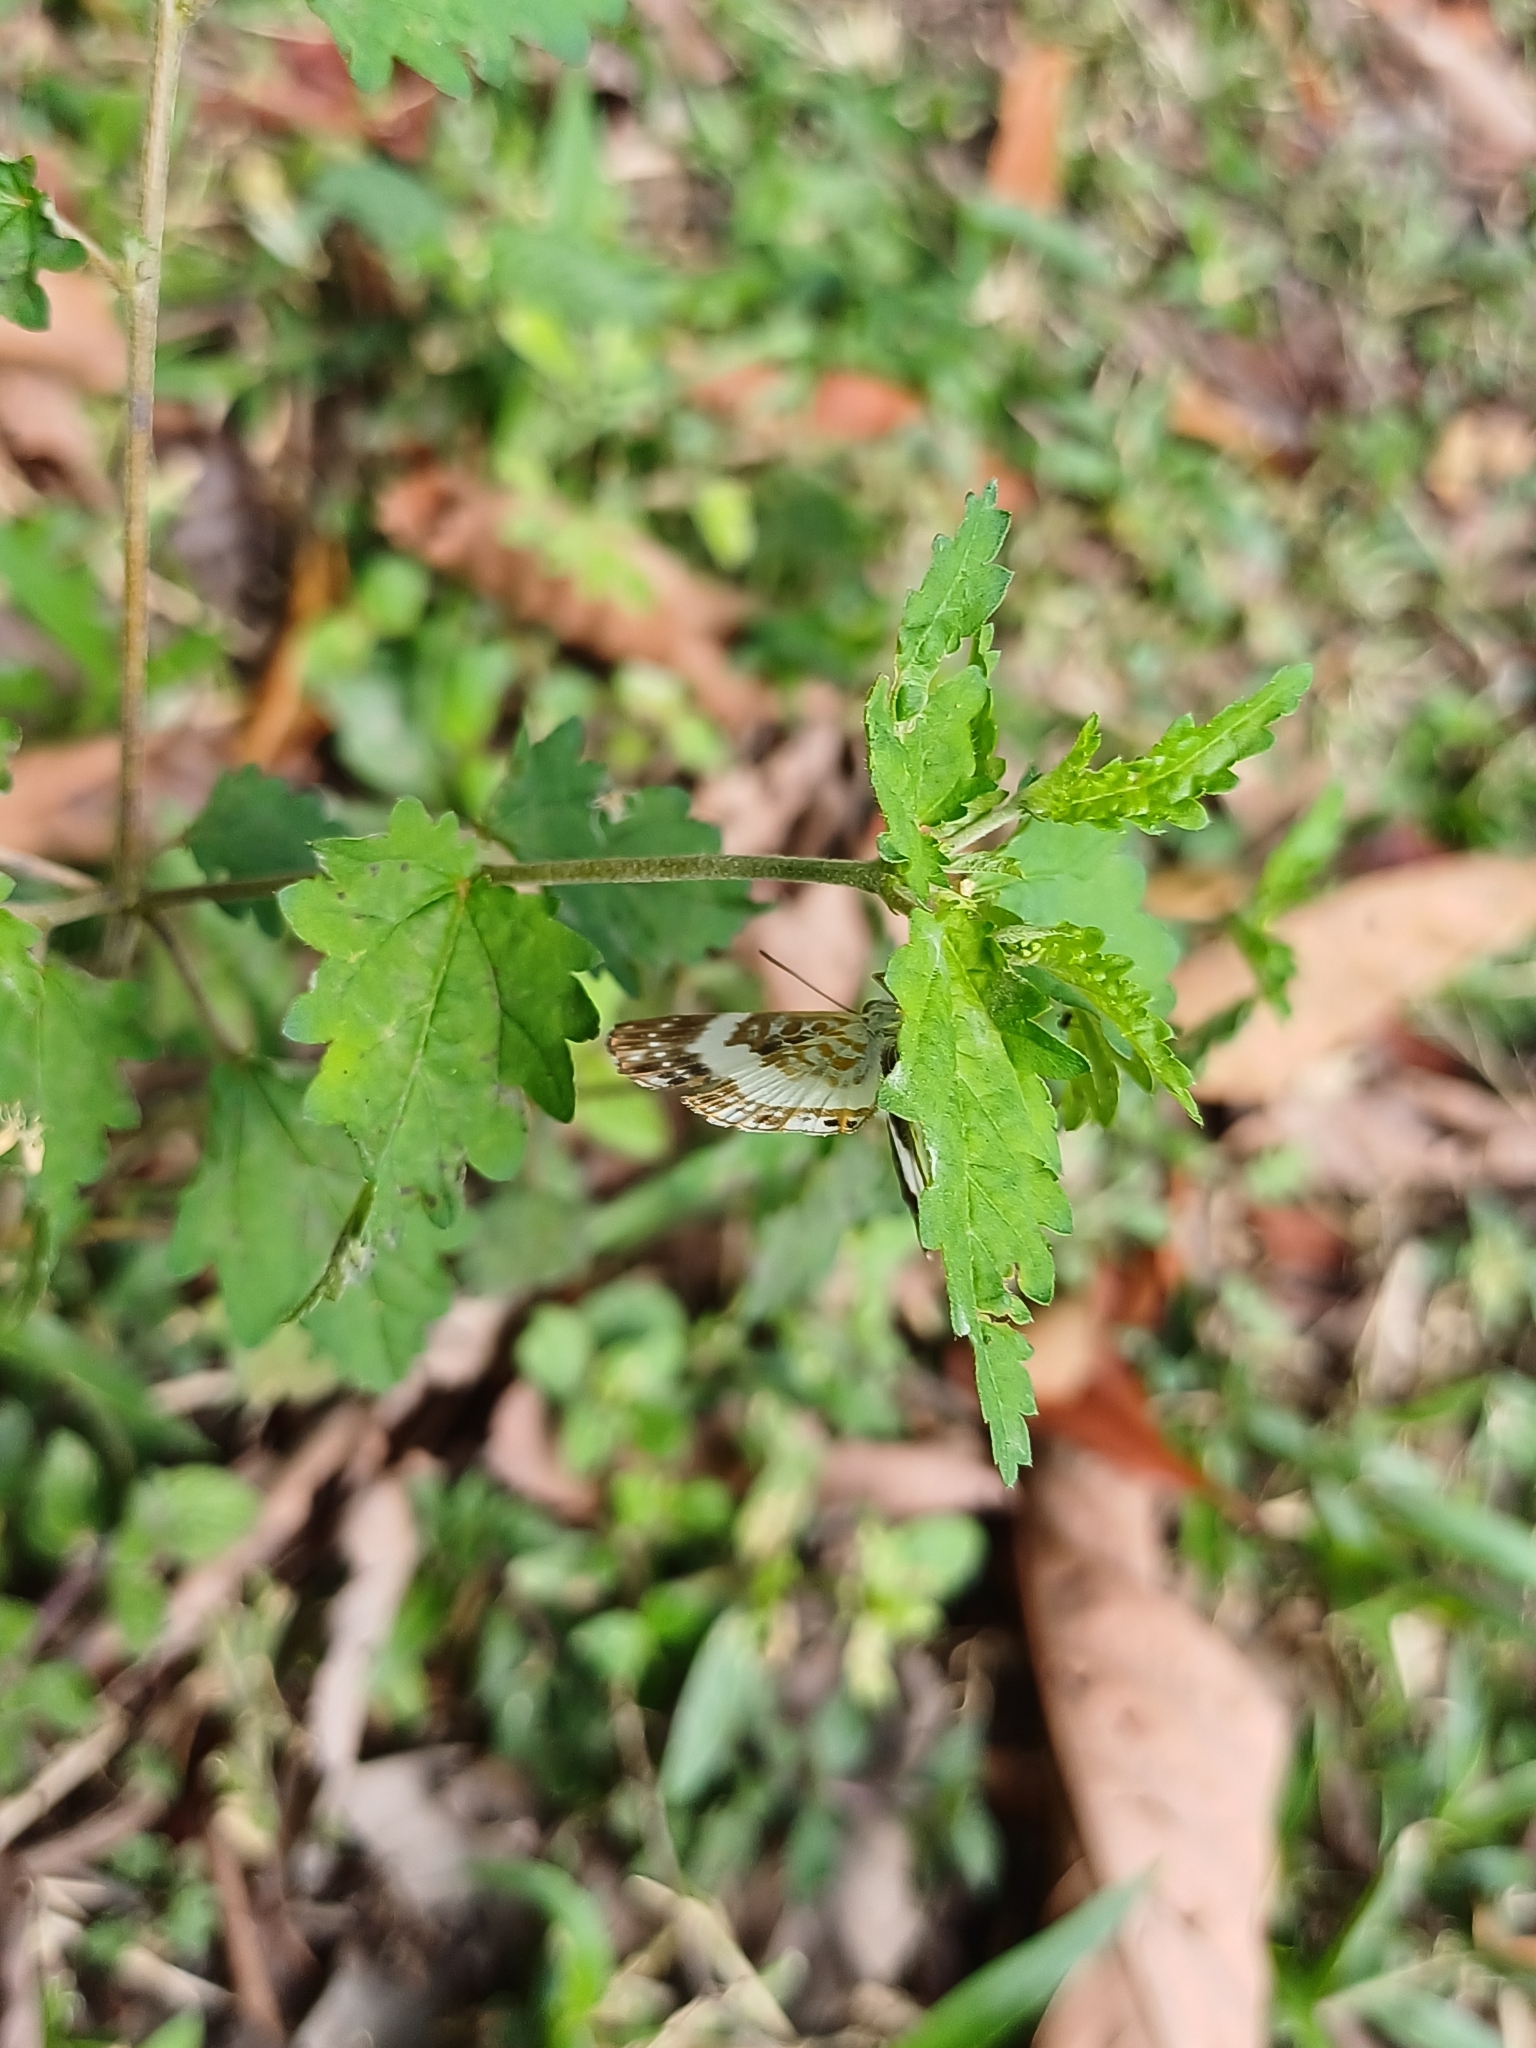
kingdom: Animalia
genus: Lemonias
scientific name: Lemonias zygia
